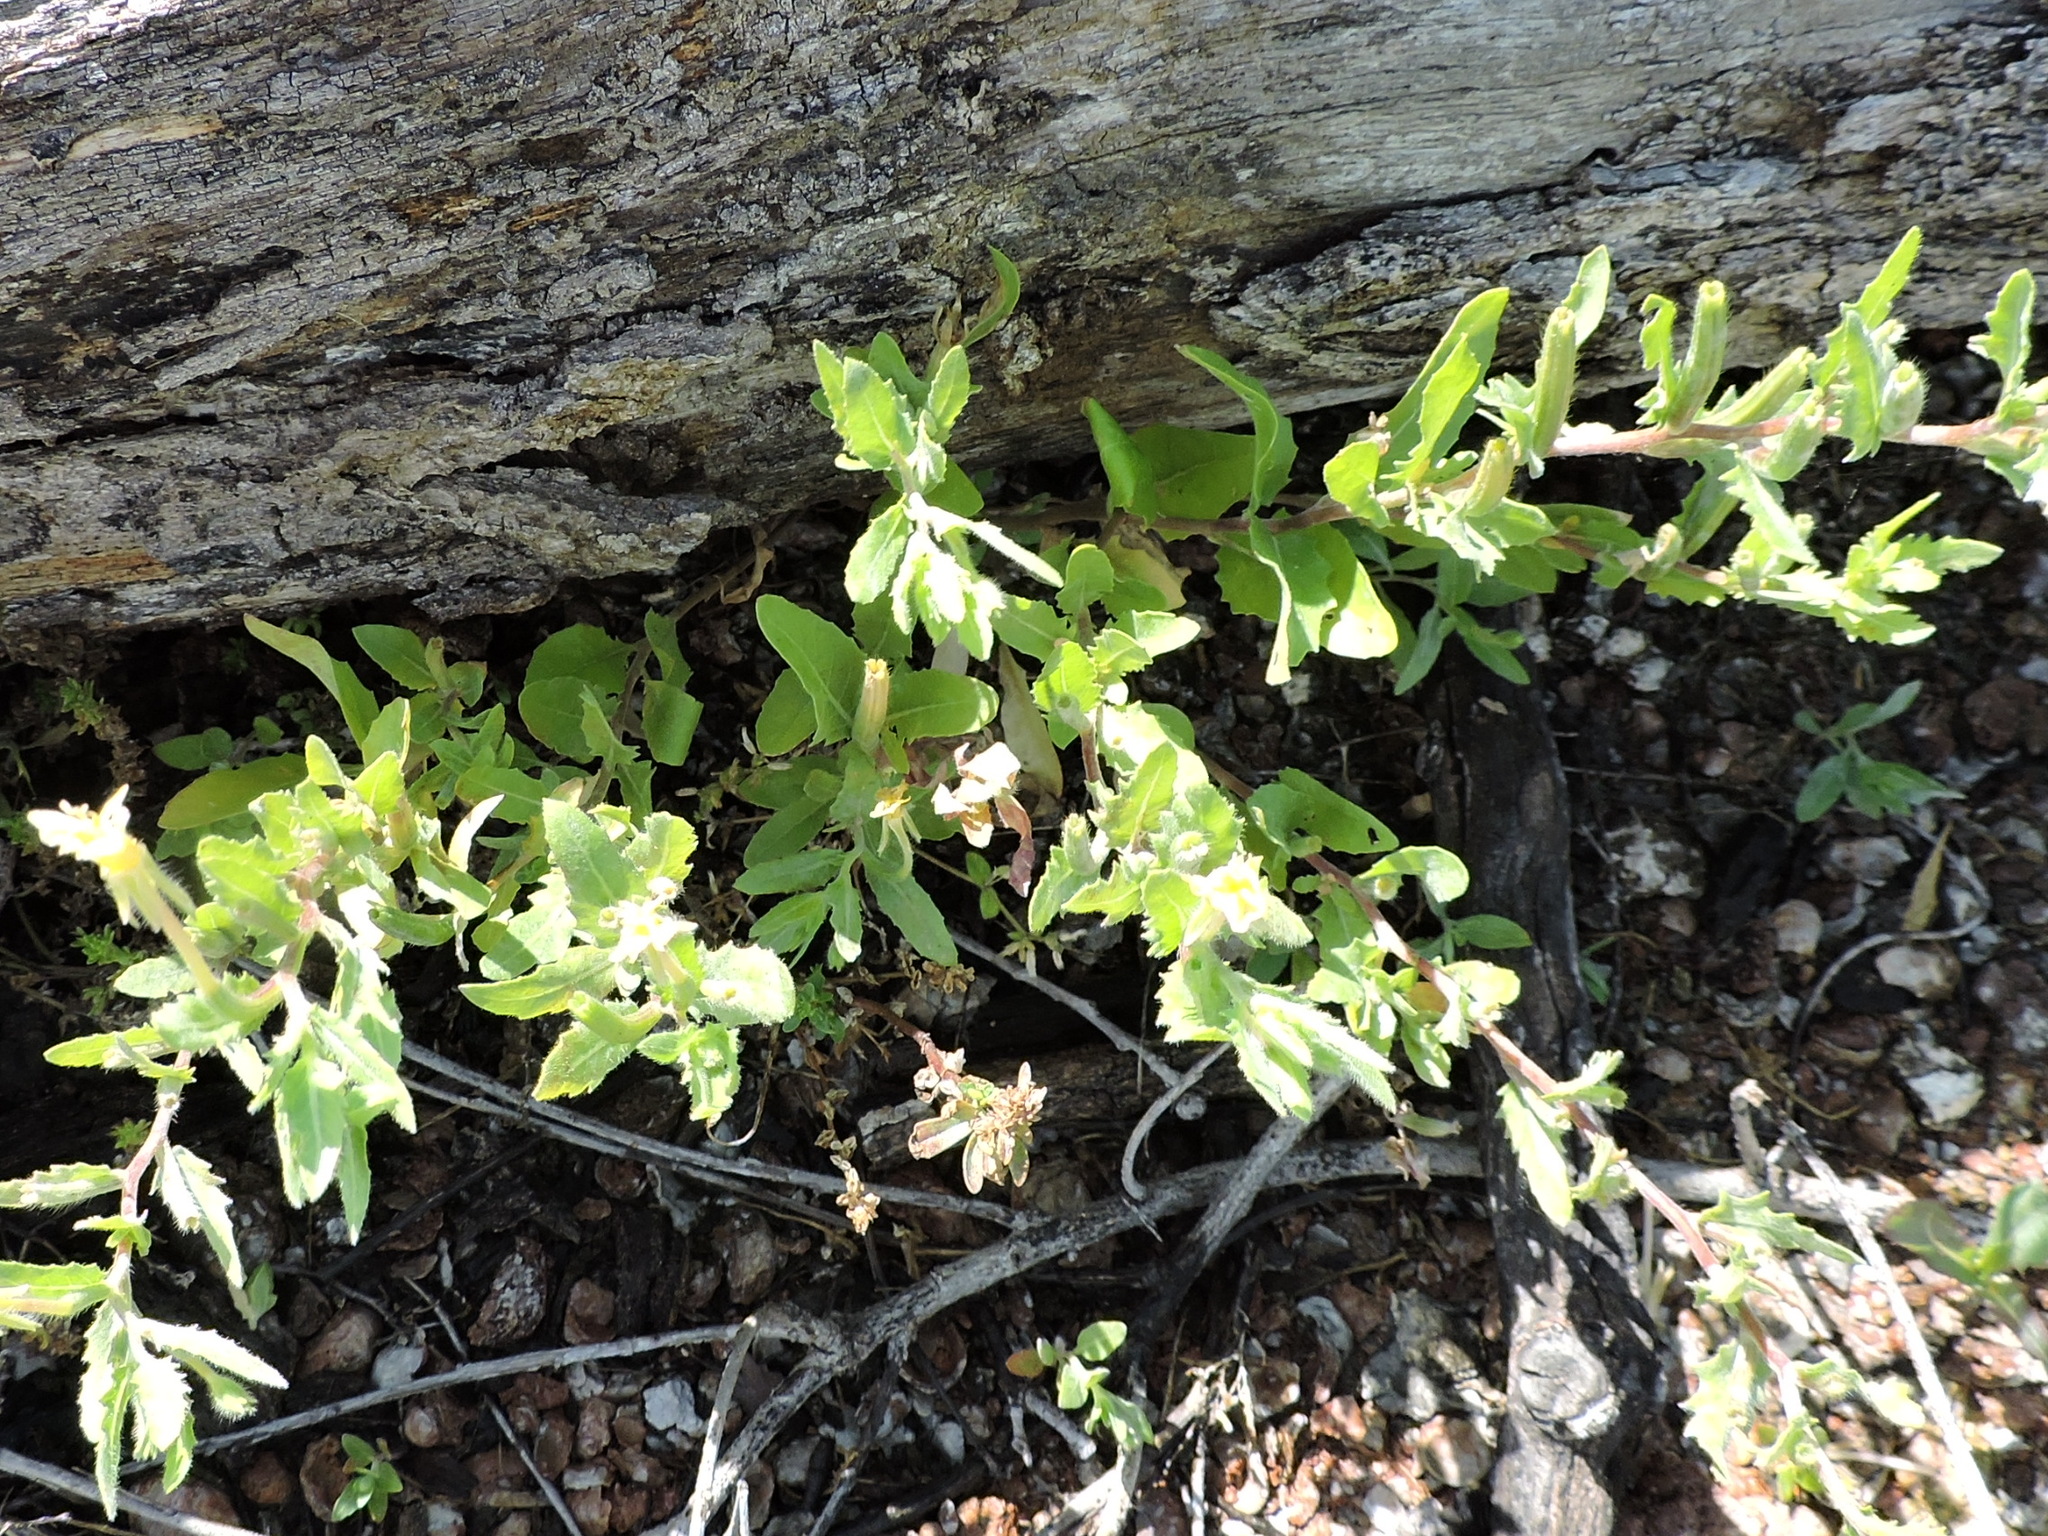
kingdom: Plantae
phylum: Tracheophyta
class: Magnoliopsida
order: Myrtales
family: Onagraceae
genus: Oenothera
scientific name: Oenothera laciniata
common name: Cut-leaved evening-primrose
